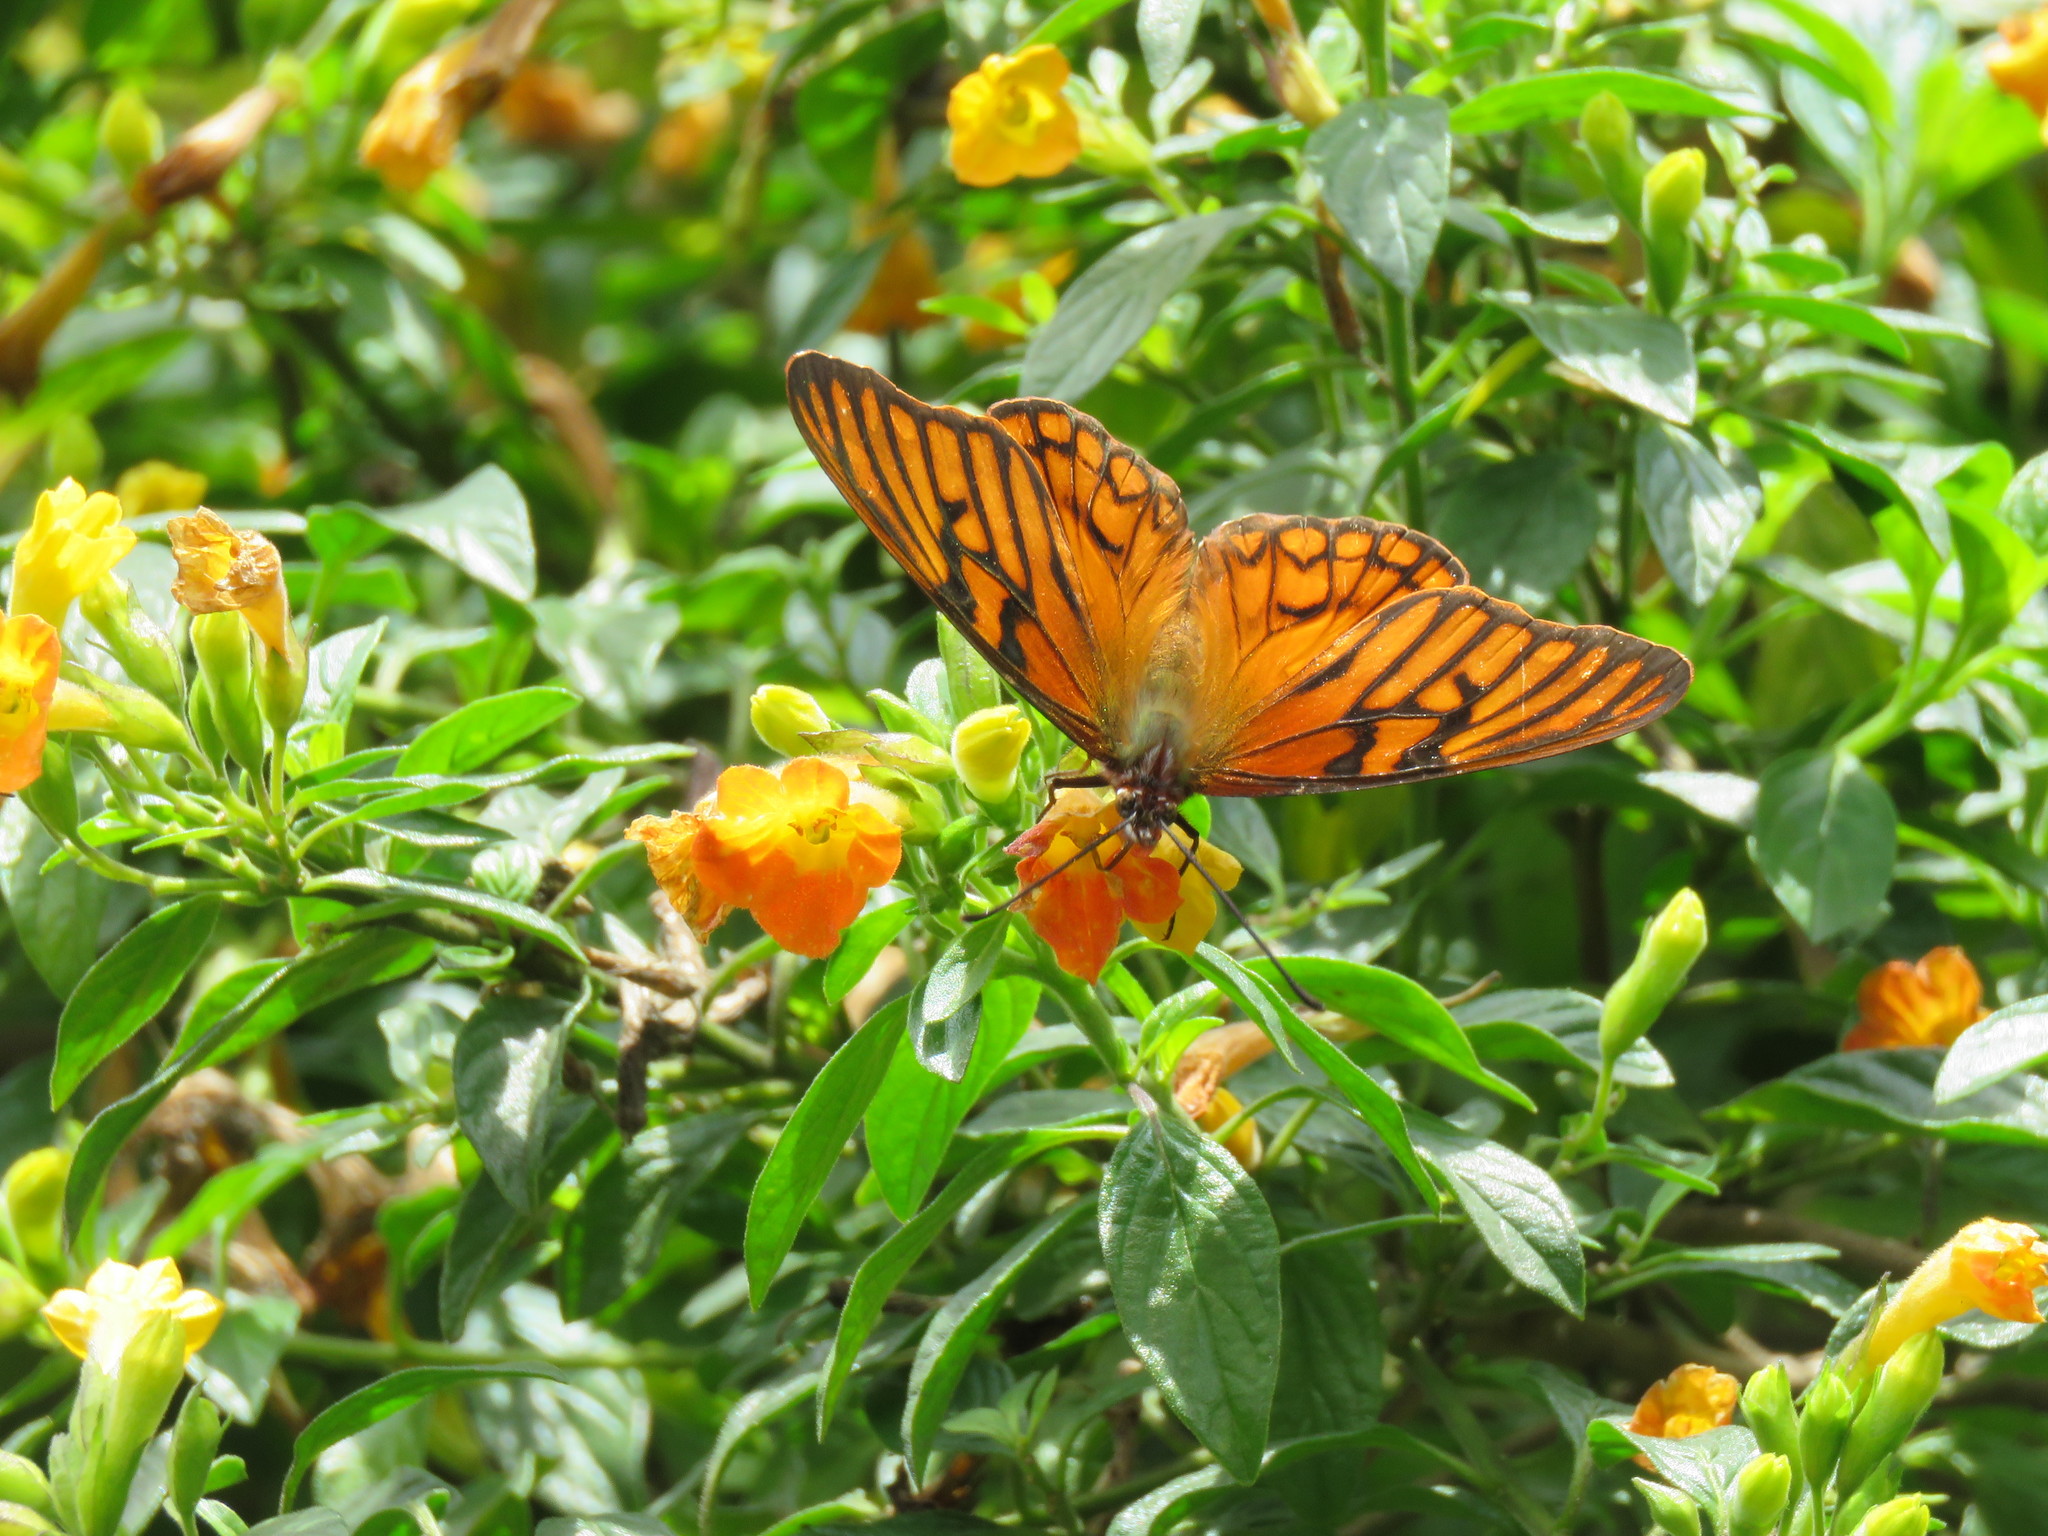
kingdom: Animalia
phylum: Arthropoda
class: Insecta
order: Lepidoptera
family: Nymphalidae
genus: Dione
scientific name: Dione glycera
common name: Andean silverspot
